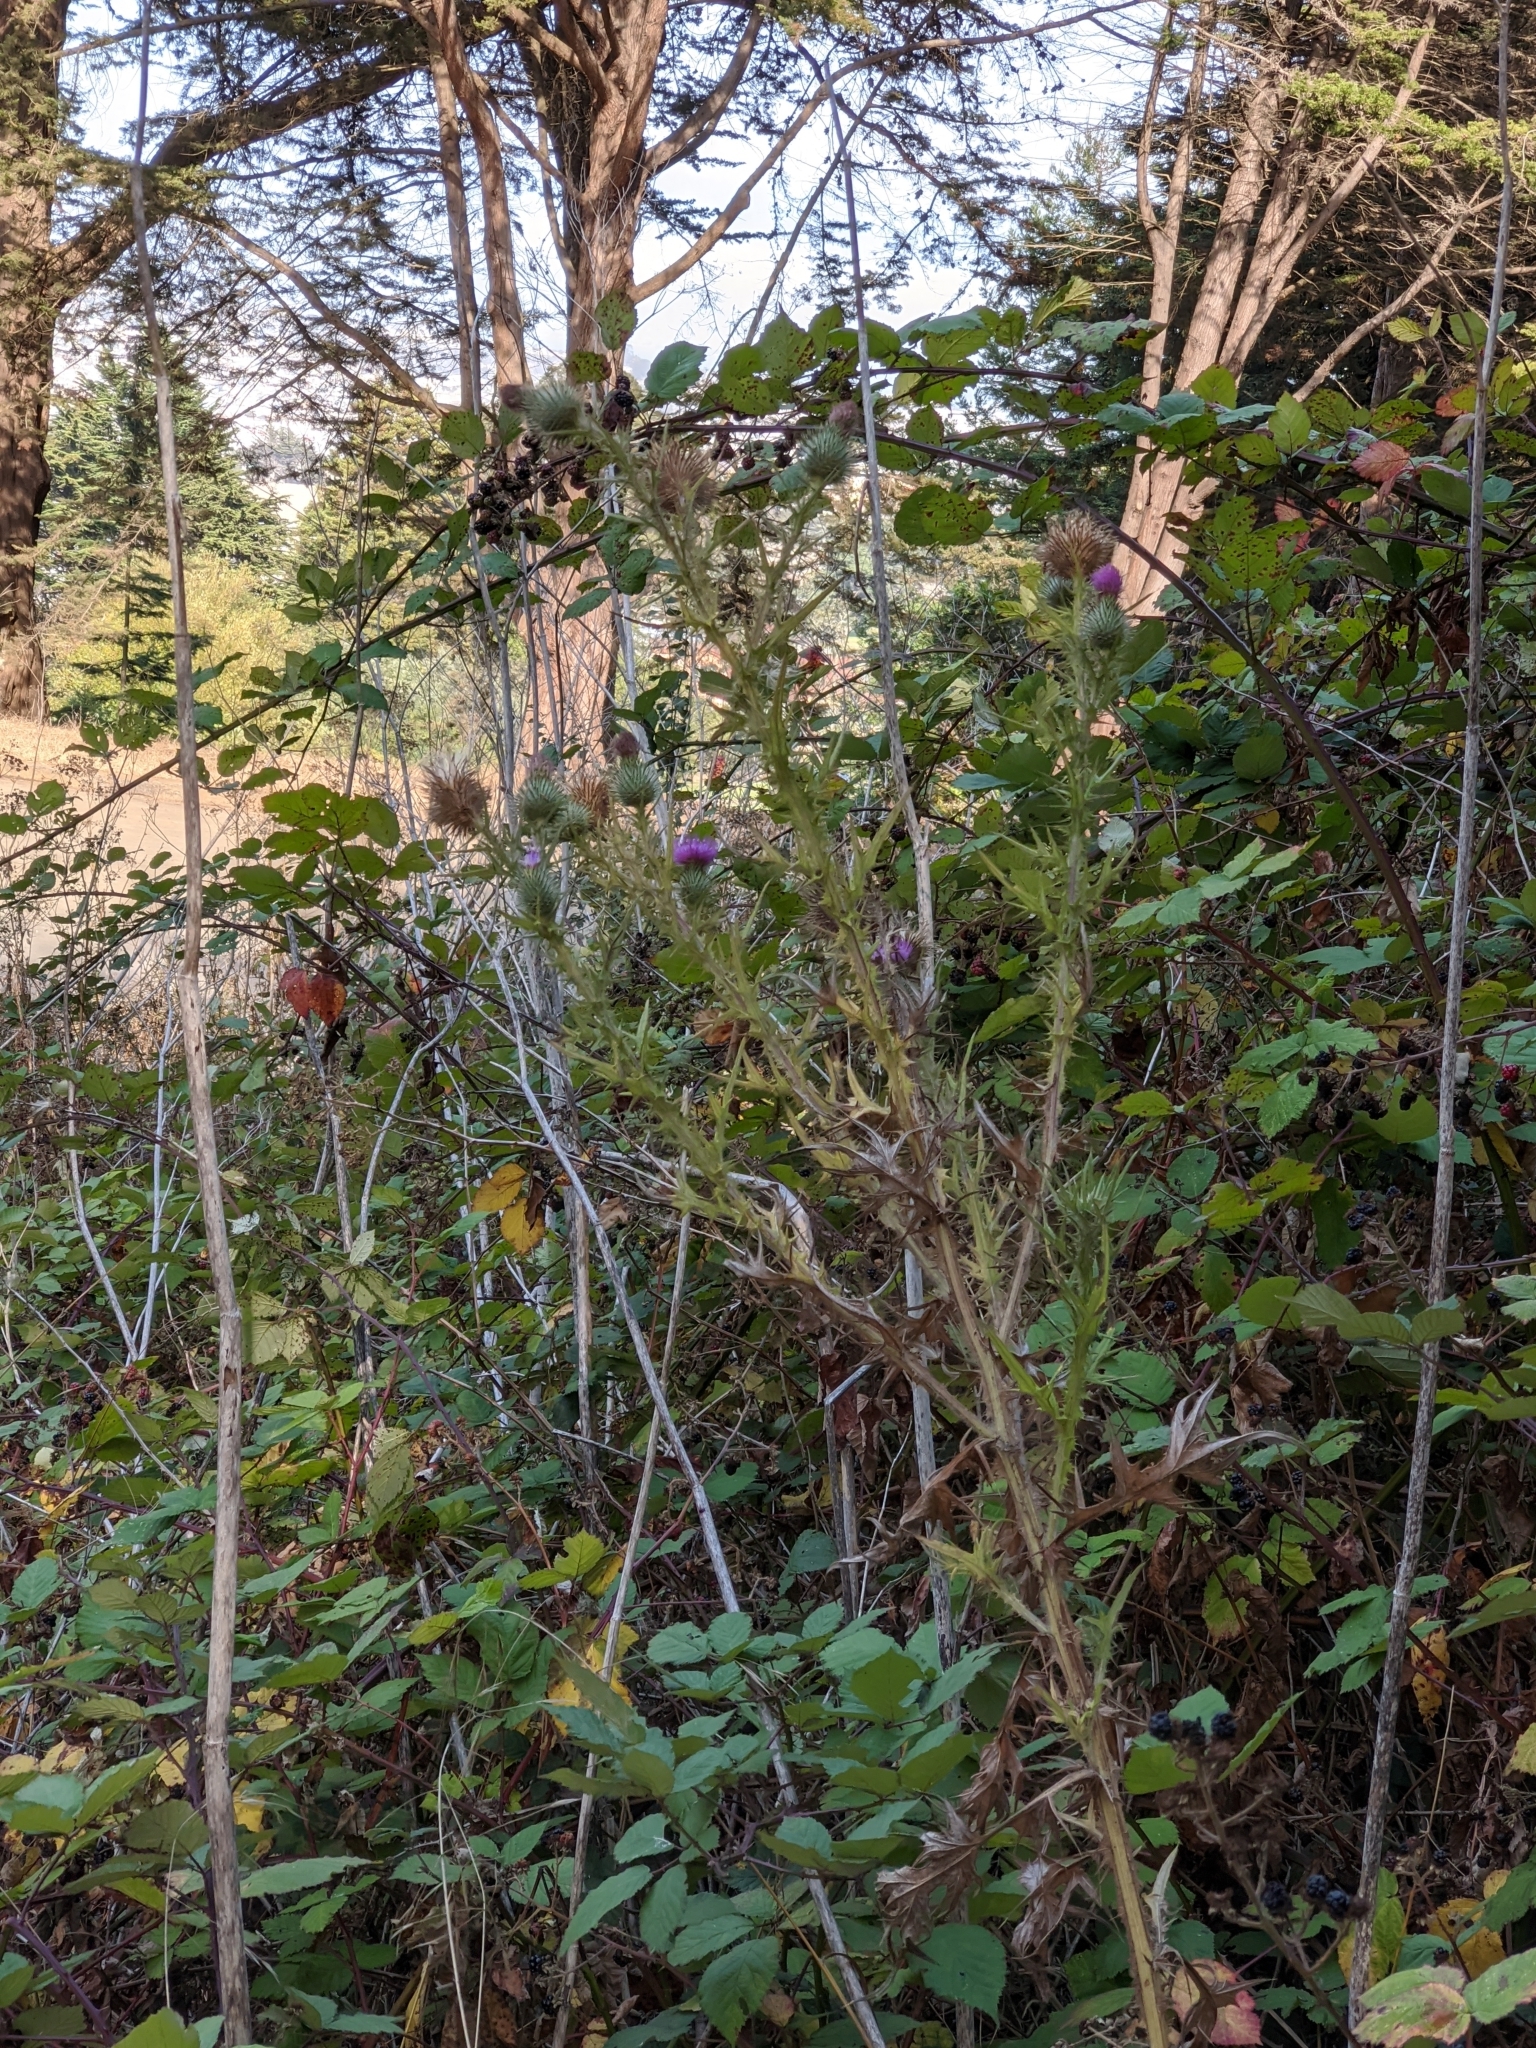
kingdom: Plantae
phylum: Tracheophyta
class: Magnoliopsida
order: Asterales
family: Asteraceae
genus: Cirsium
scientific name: Cirsium vulgare
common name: Bull thistle
